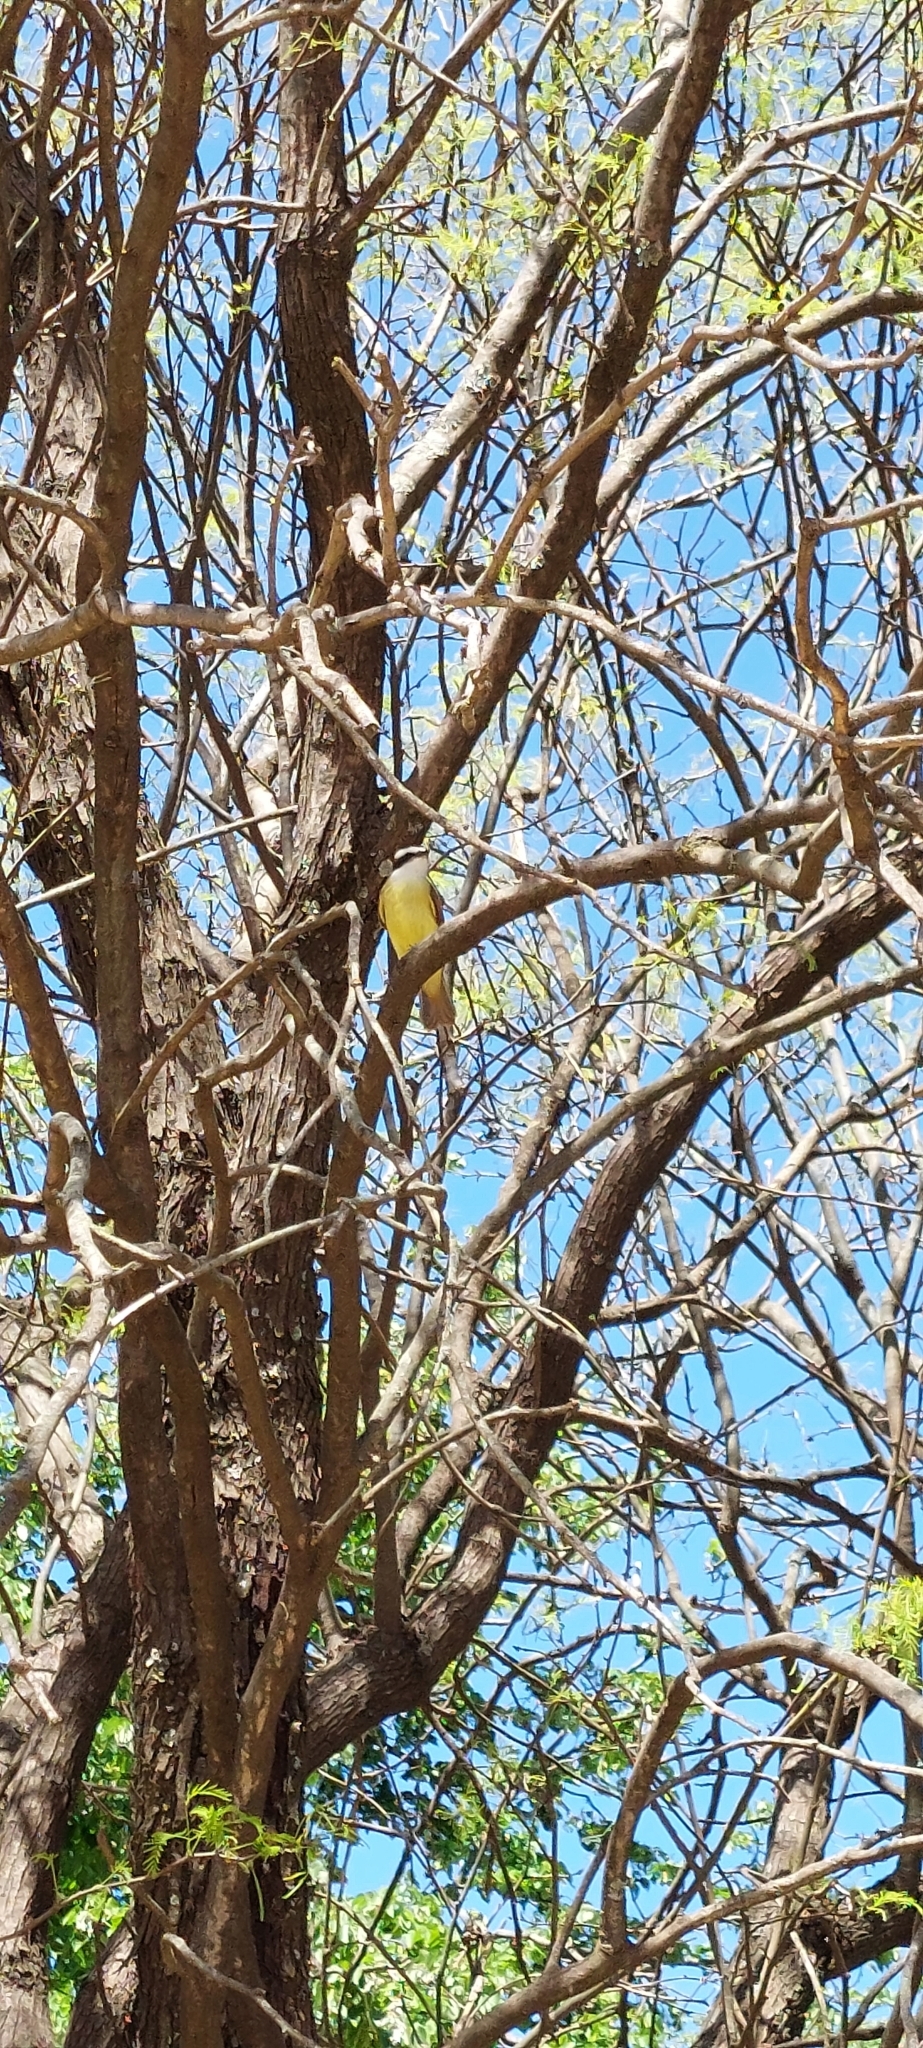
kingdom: Animalia
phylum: Chordata
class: Aves
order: Passeriformes
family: Tyrannidae
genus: Pitangus
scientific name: Pitangus sulphuratus
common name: Great kiskadee
